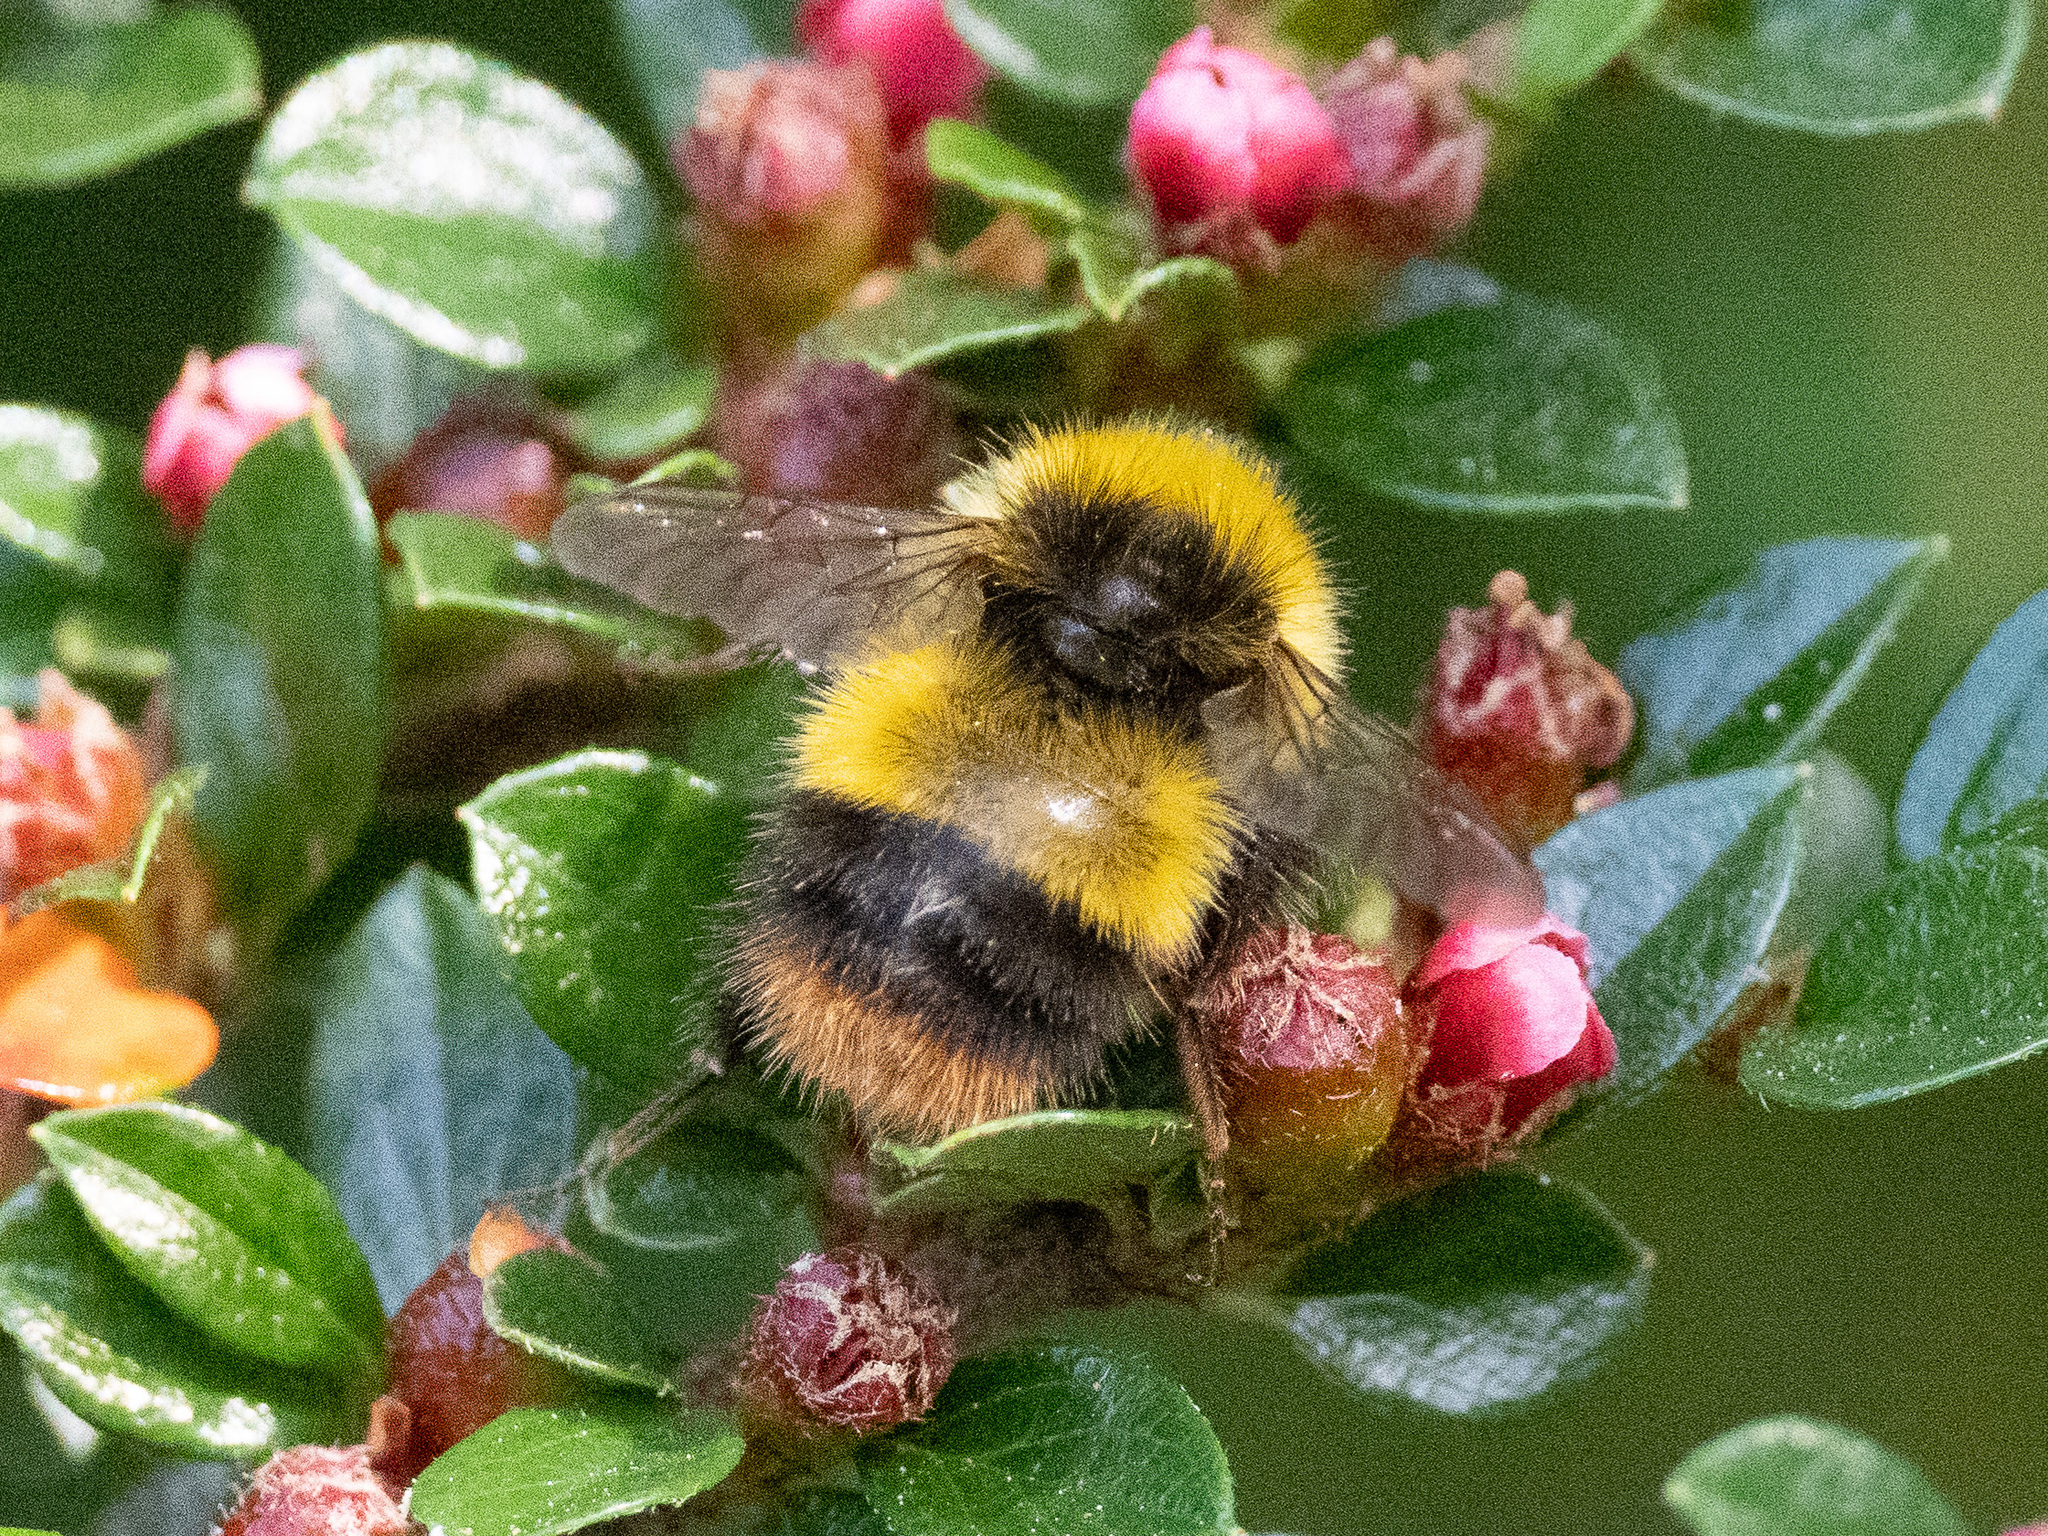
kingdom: Animalia
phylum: Arthropoda
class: Insecta
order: Hymenoptera
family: Apidae
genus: Bombus
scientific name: Bombus pratorum
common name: Early humble-bee
